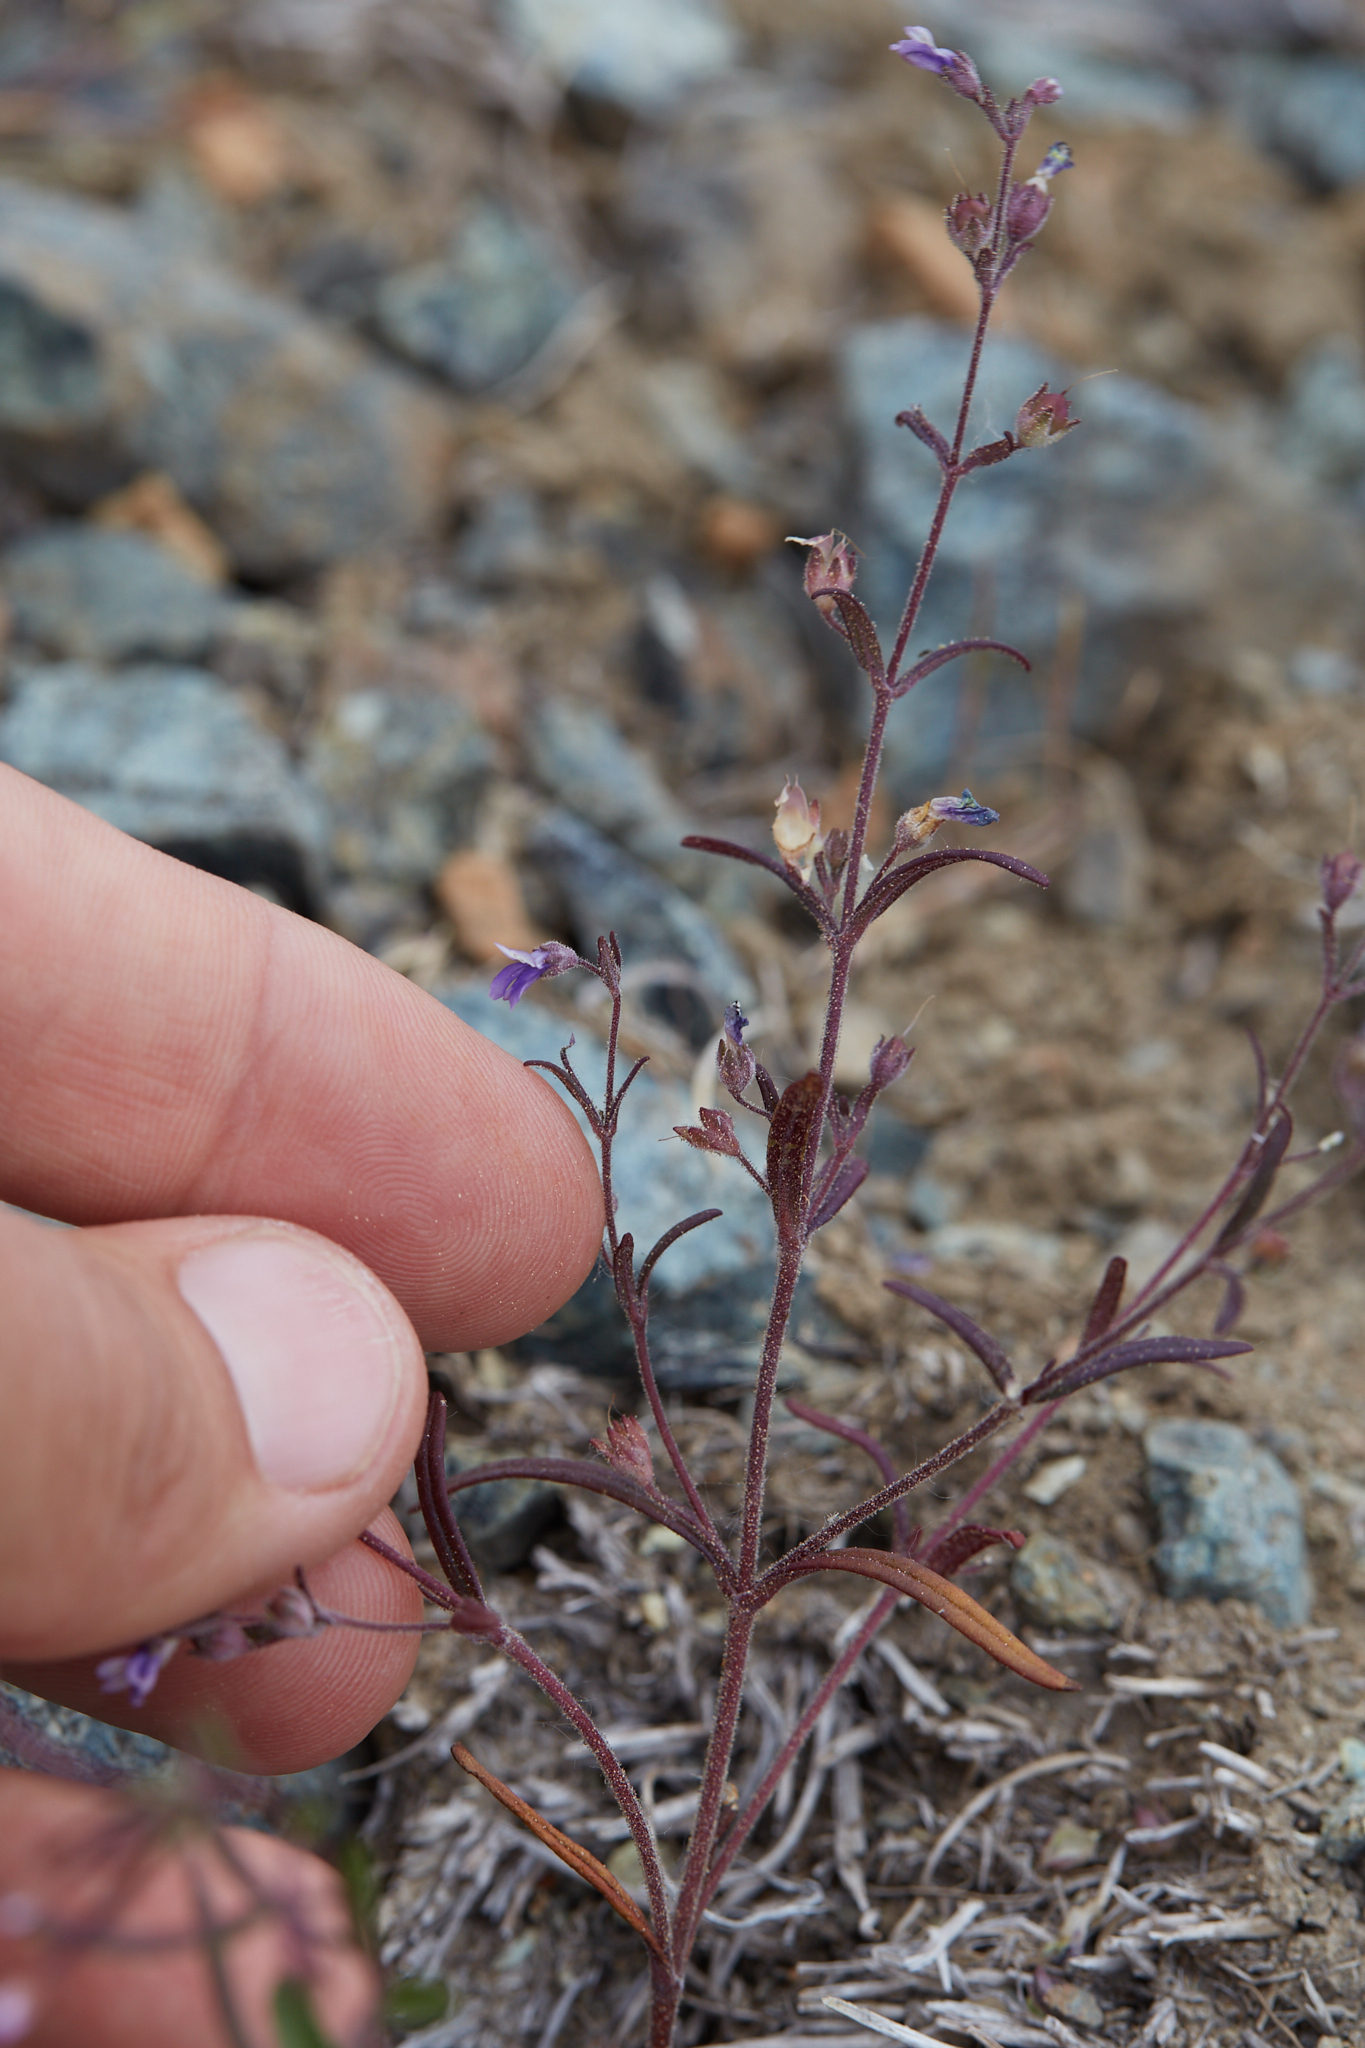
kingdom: Plantae
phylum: Tracheophyta
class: Magnoliopsida
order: Lamiales
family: Plantaginaceae
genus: Collinsia
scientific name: Collinsia rattanii
